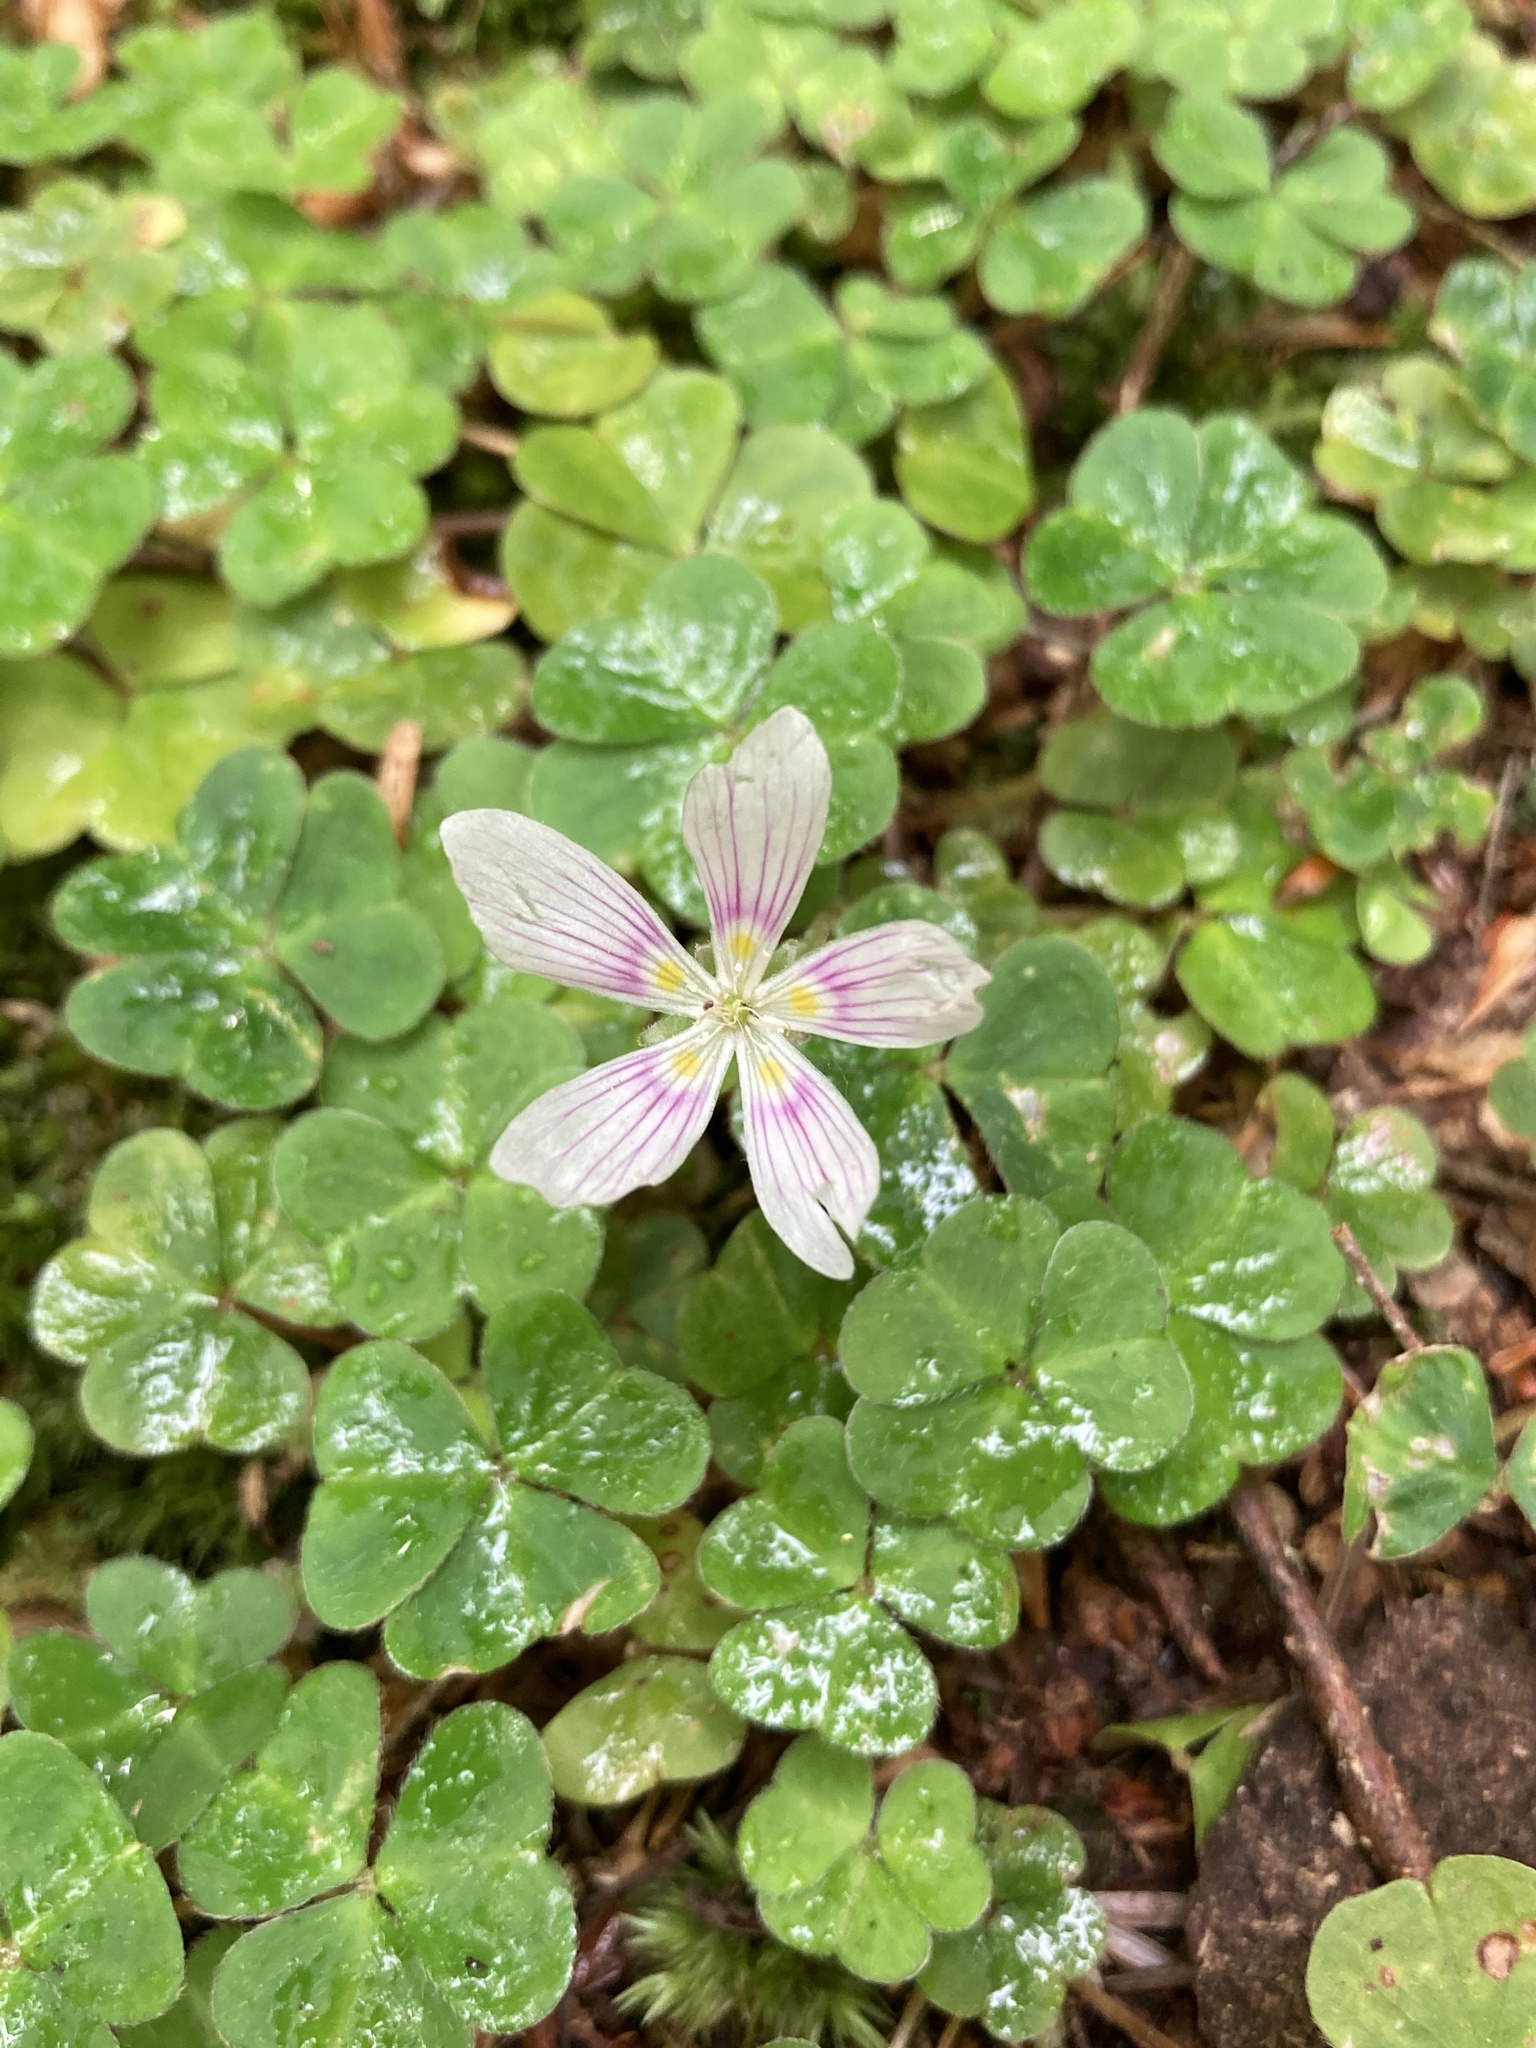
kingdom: Plantae
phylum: Tracheophyta
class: Magnoliopsida
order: Oxalidales
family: Oxalidaceae
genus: Oxalis
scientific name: Oxalis montana
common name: American wood-sorrel
